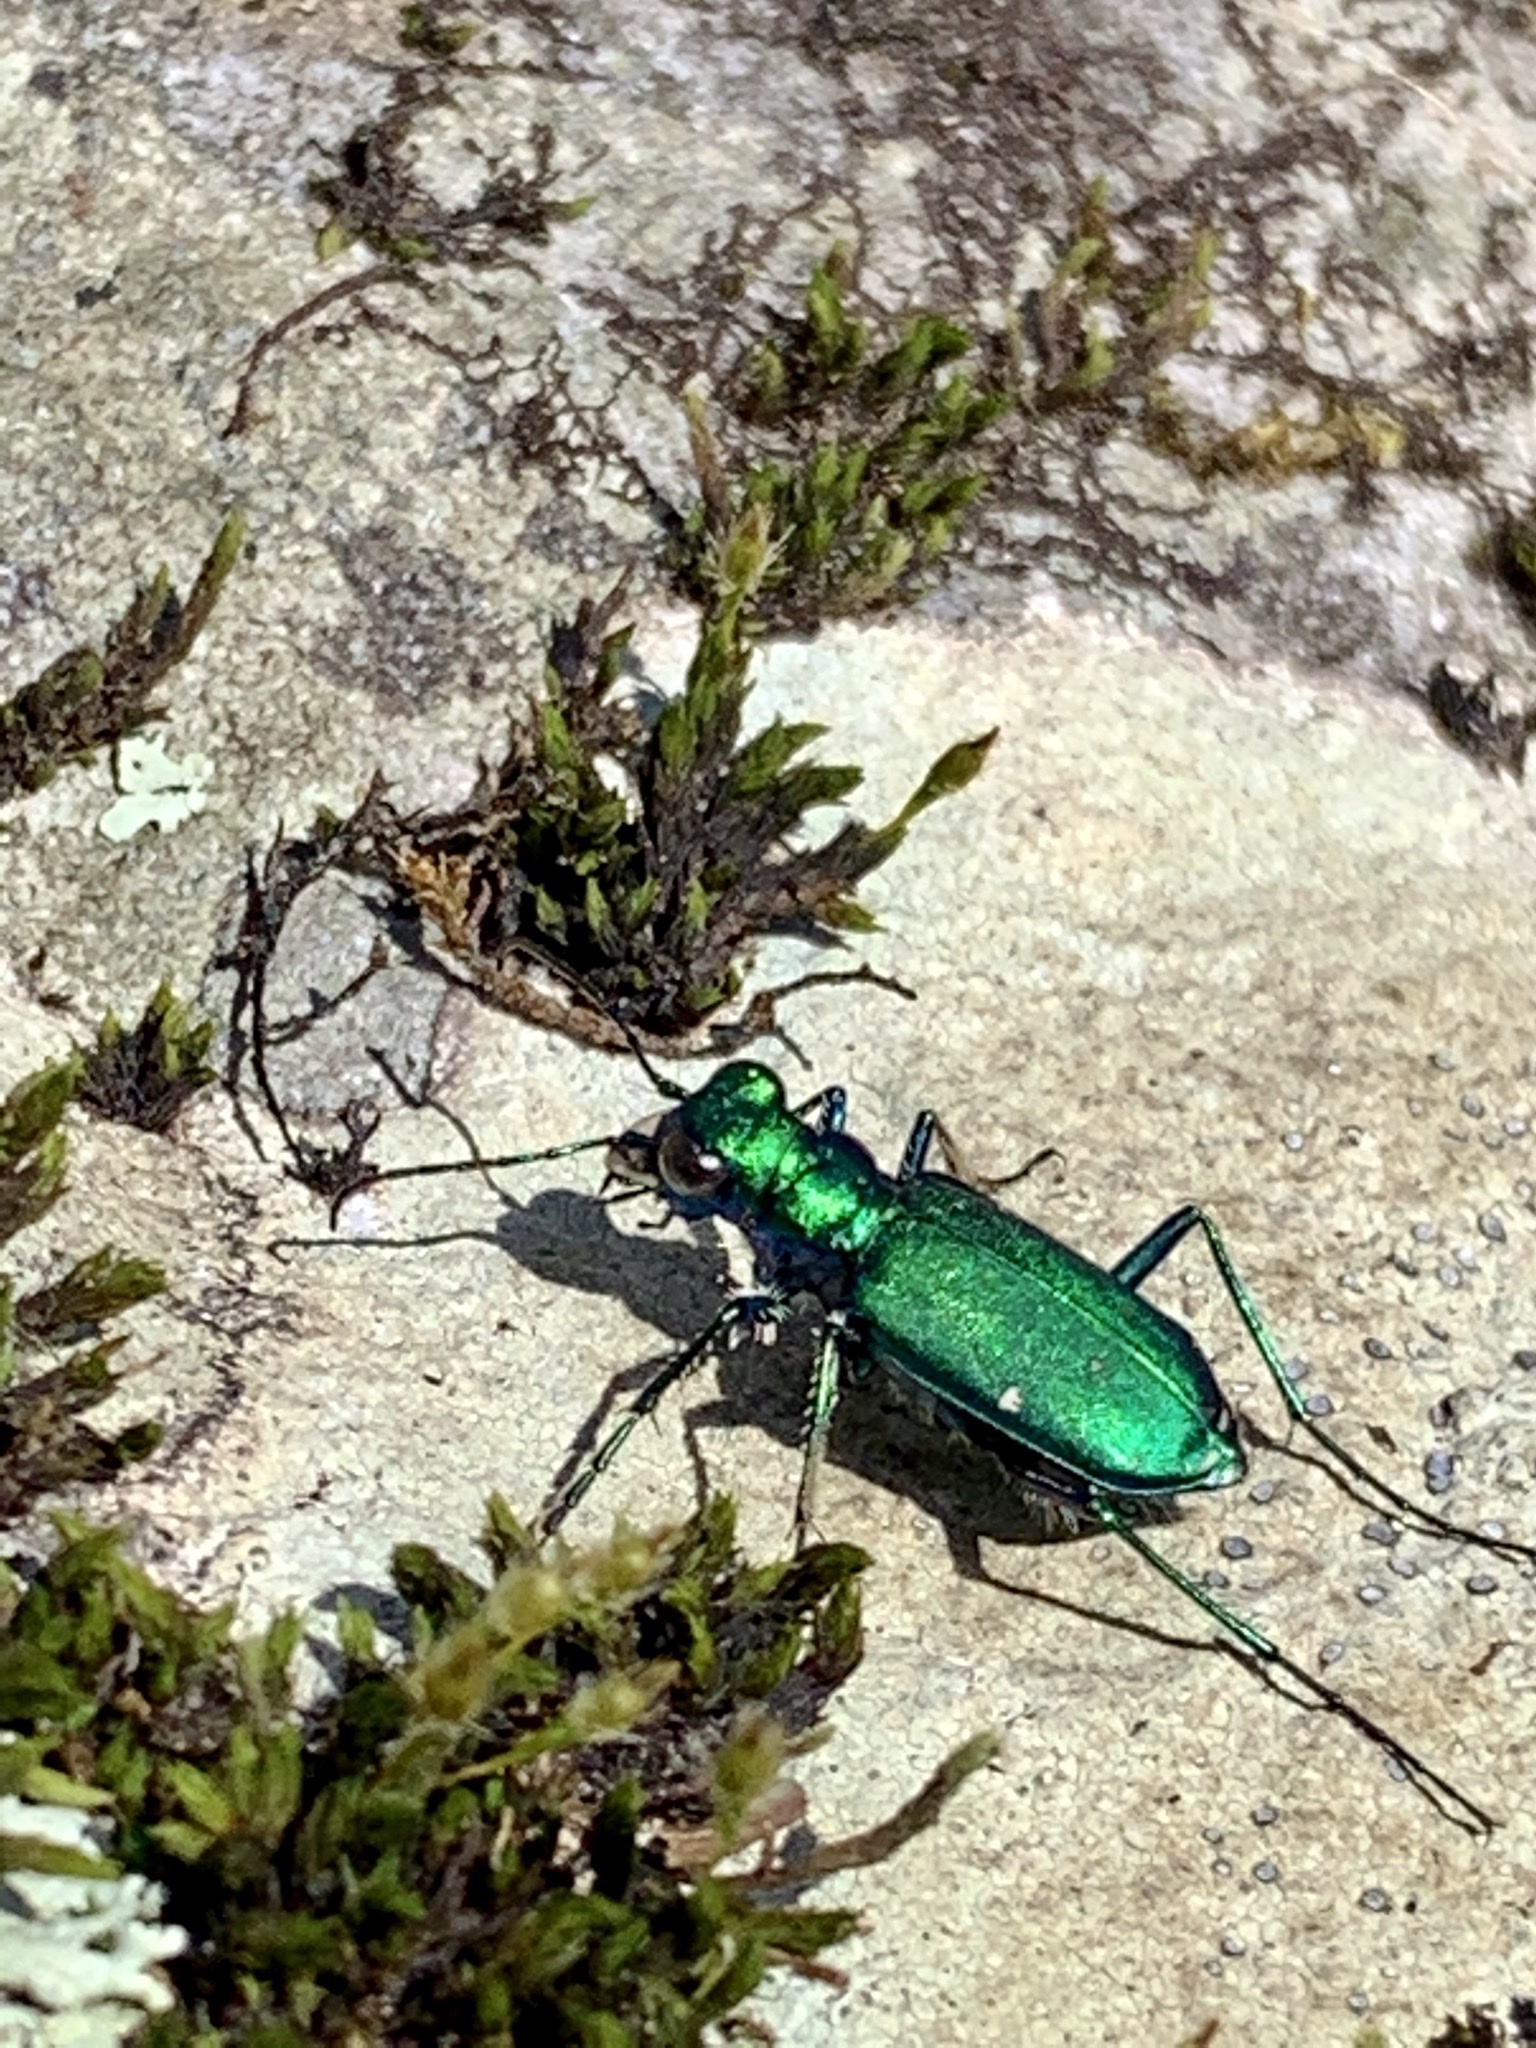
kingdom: Animalia
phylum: Arthropoda
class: Insecta
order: Coleoptera
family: Carabidae
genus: Cicindela
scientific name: Cicindela sexguttata
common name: Six-spotted tiger beetle
